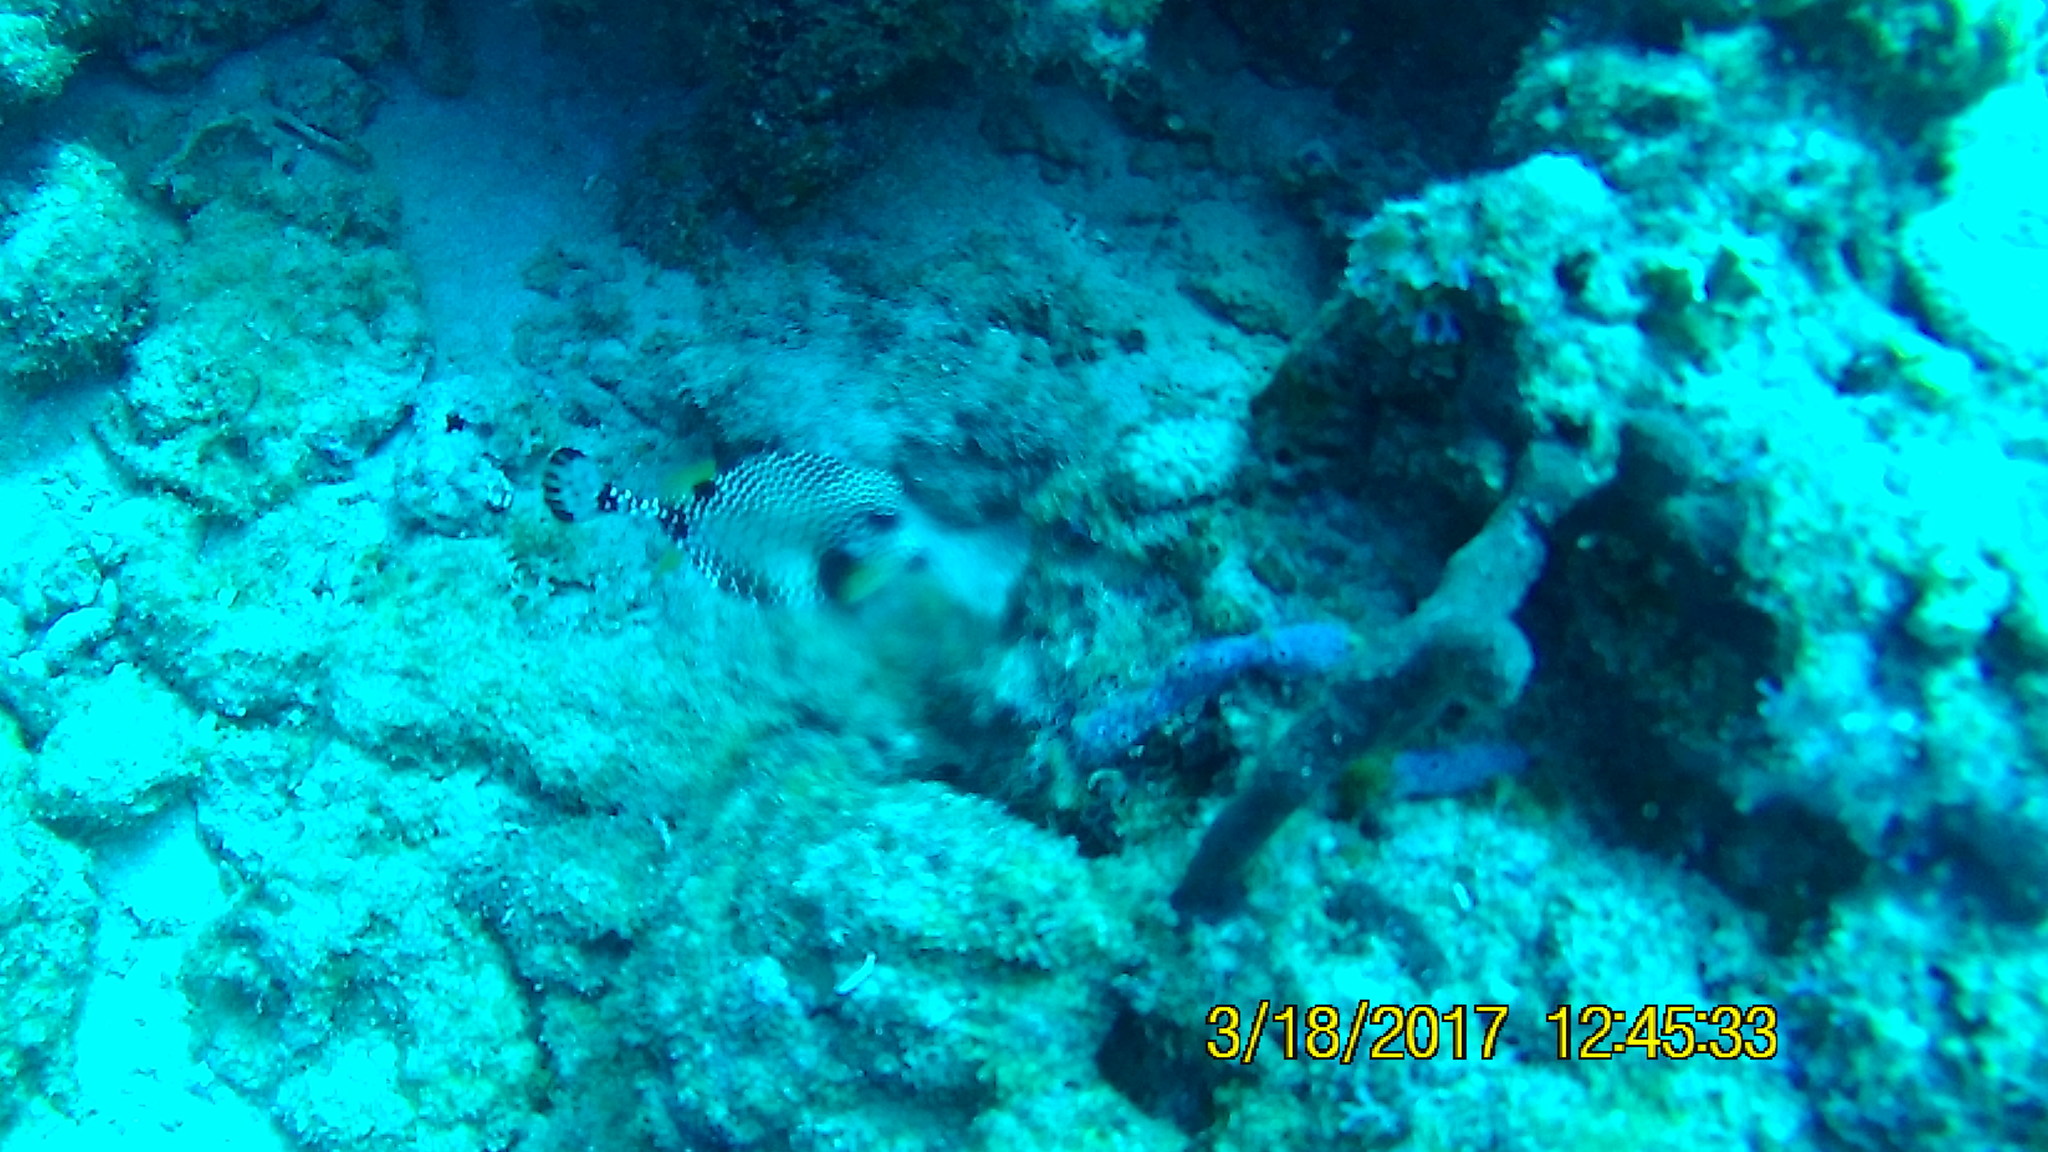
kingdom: Animalia
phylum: Chordata
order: Tetraodontiformes
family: Ostraciidae
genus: Lactophrys
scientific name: Lactophrys triqueter
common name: Smooth trunkfish
